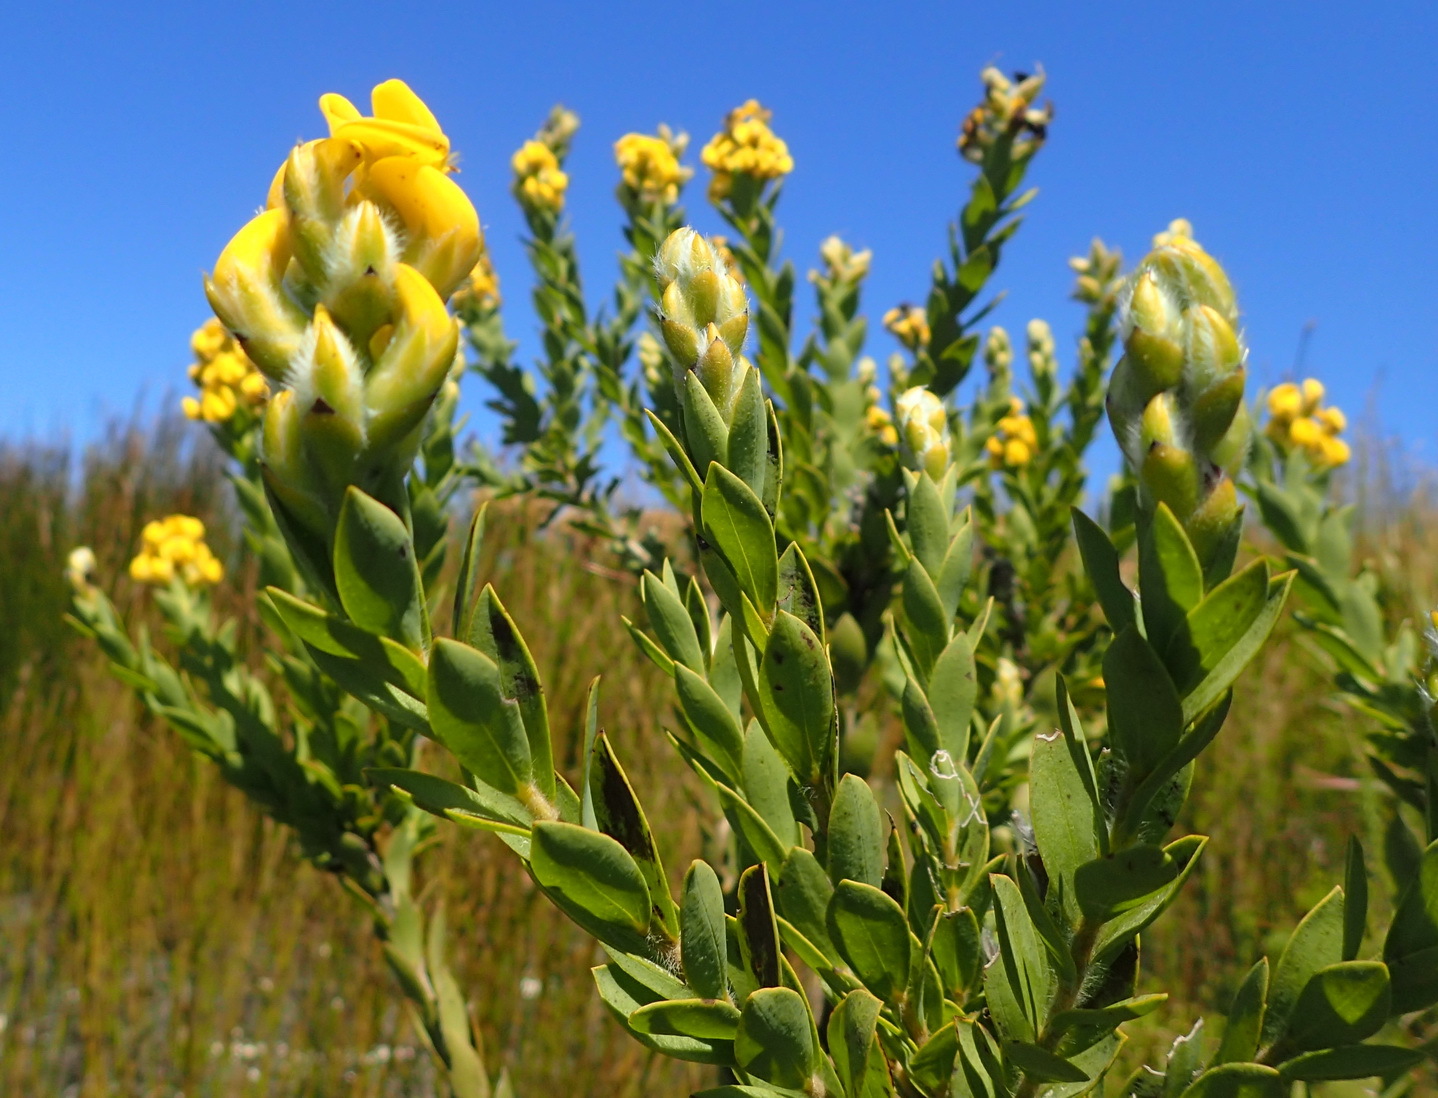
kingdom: Plantae
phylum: Tracheophyta
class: Magnoliopsida
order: Fabales
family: Fabaceae
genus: Liparia
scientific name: Liparia hirsuta
